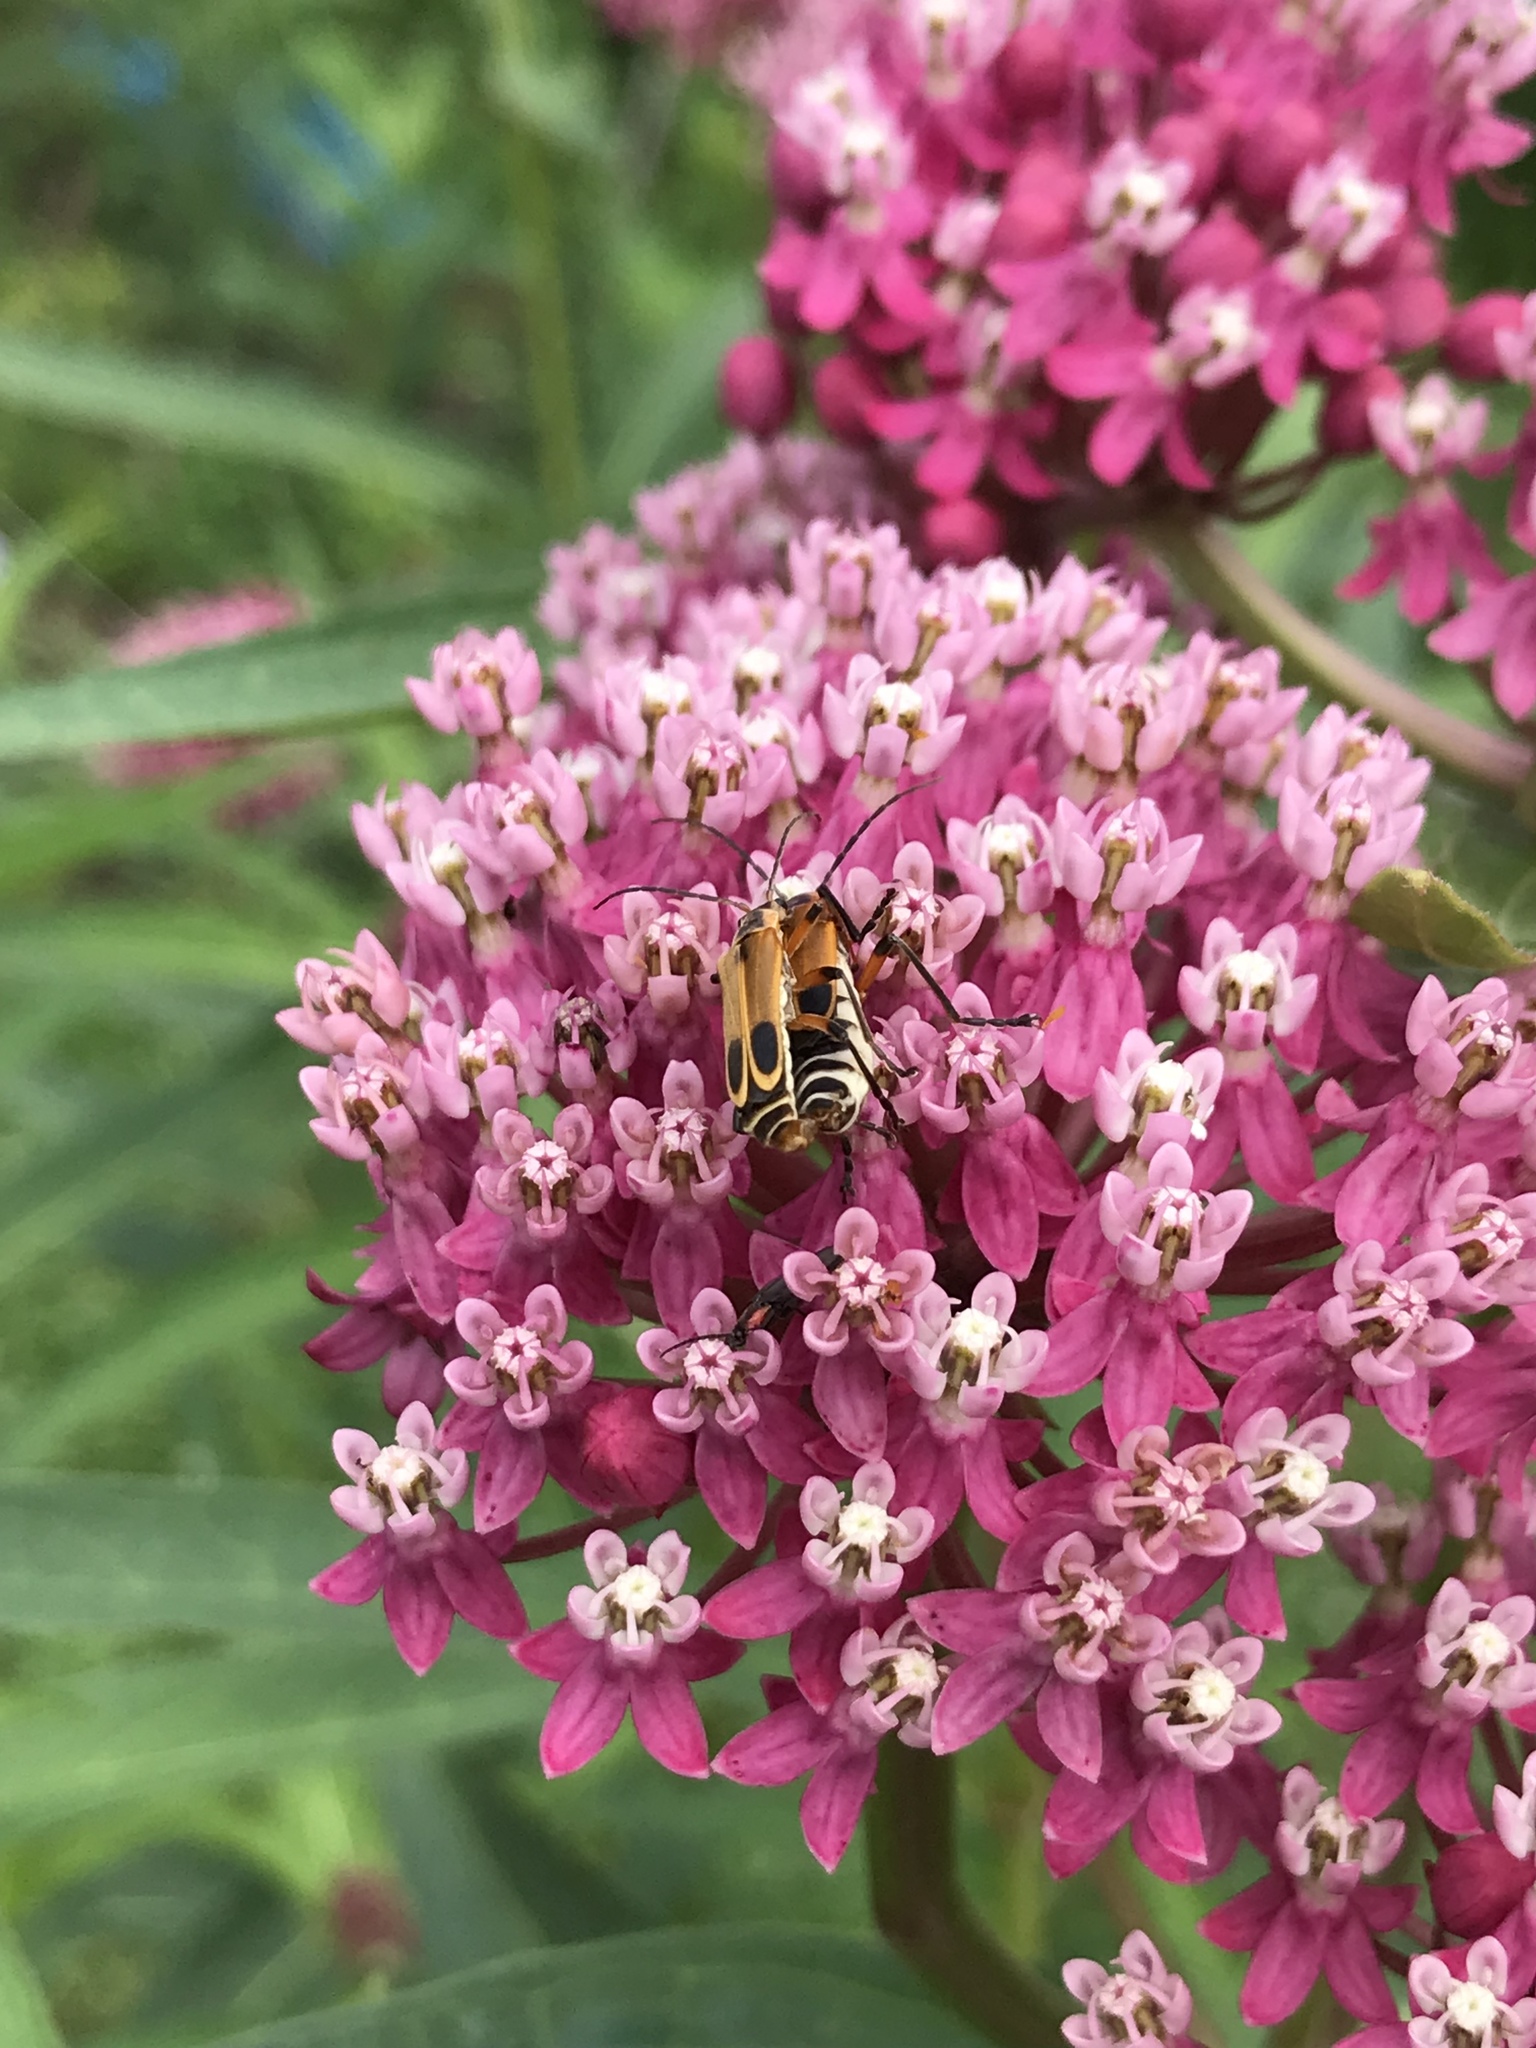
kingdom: Animalia
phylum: Arthropoda
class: Insecta
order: Coleoptera
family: Cantharidae
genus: Chauliognathus
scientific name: Chauliognathus marginatus
